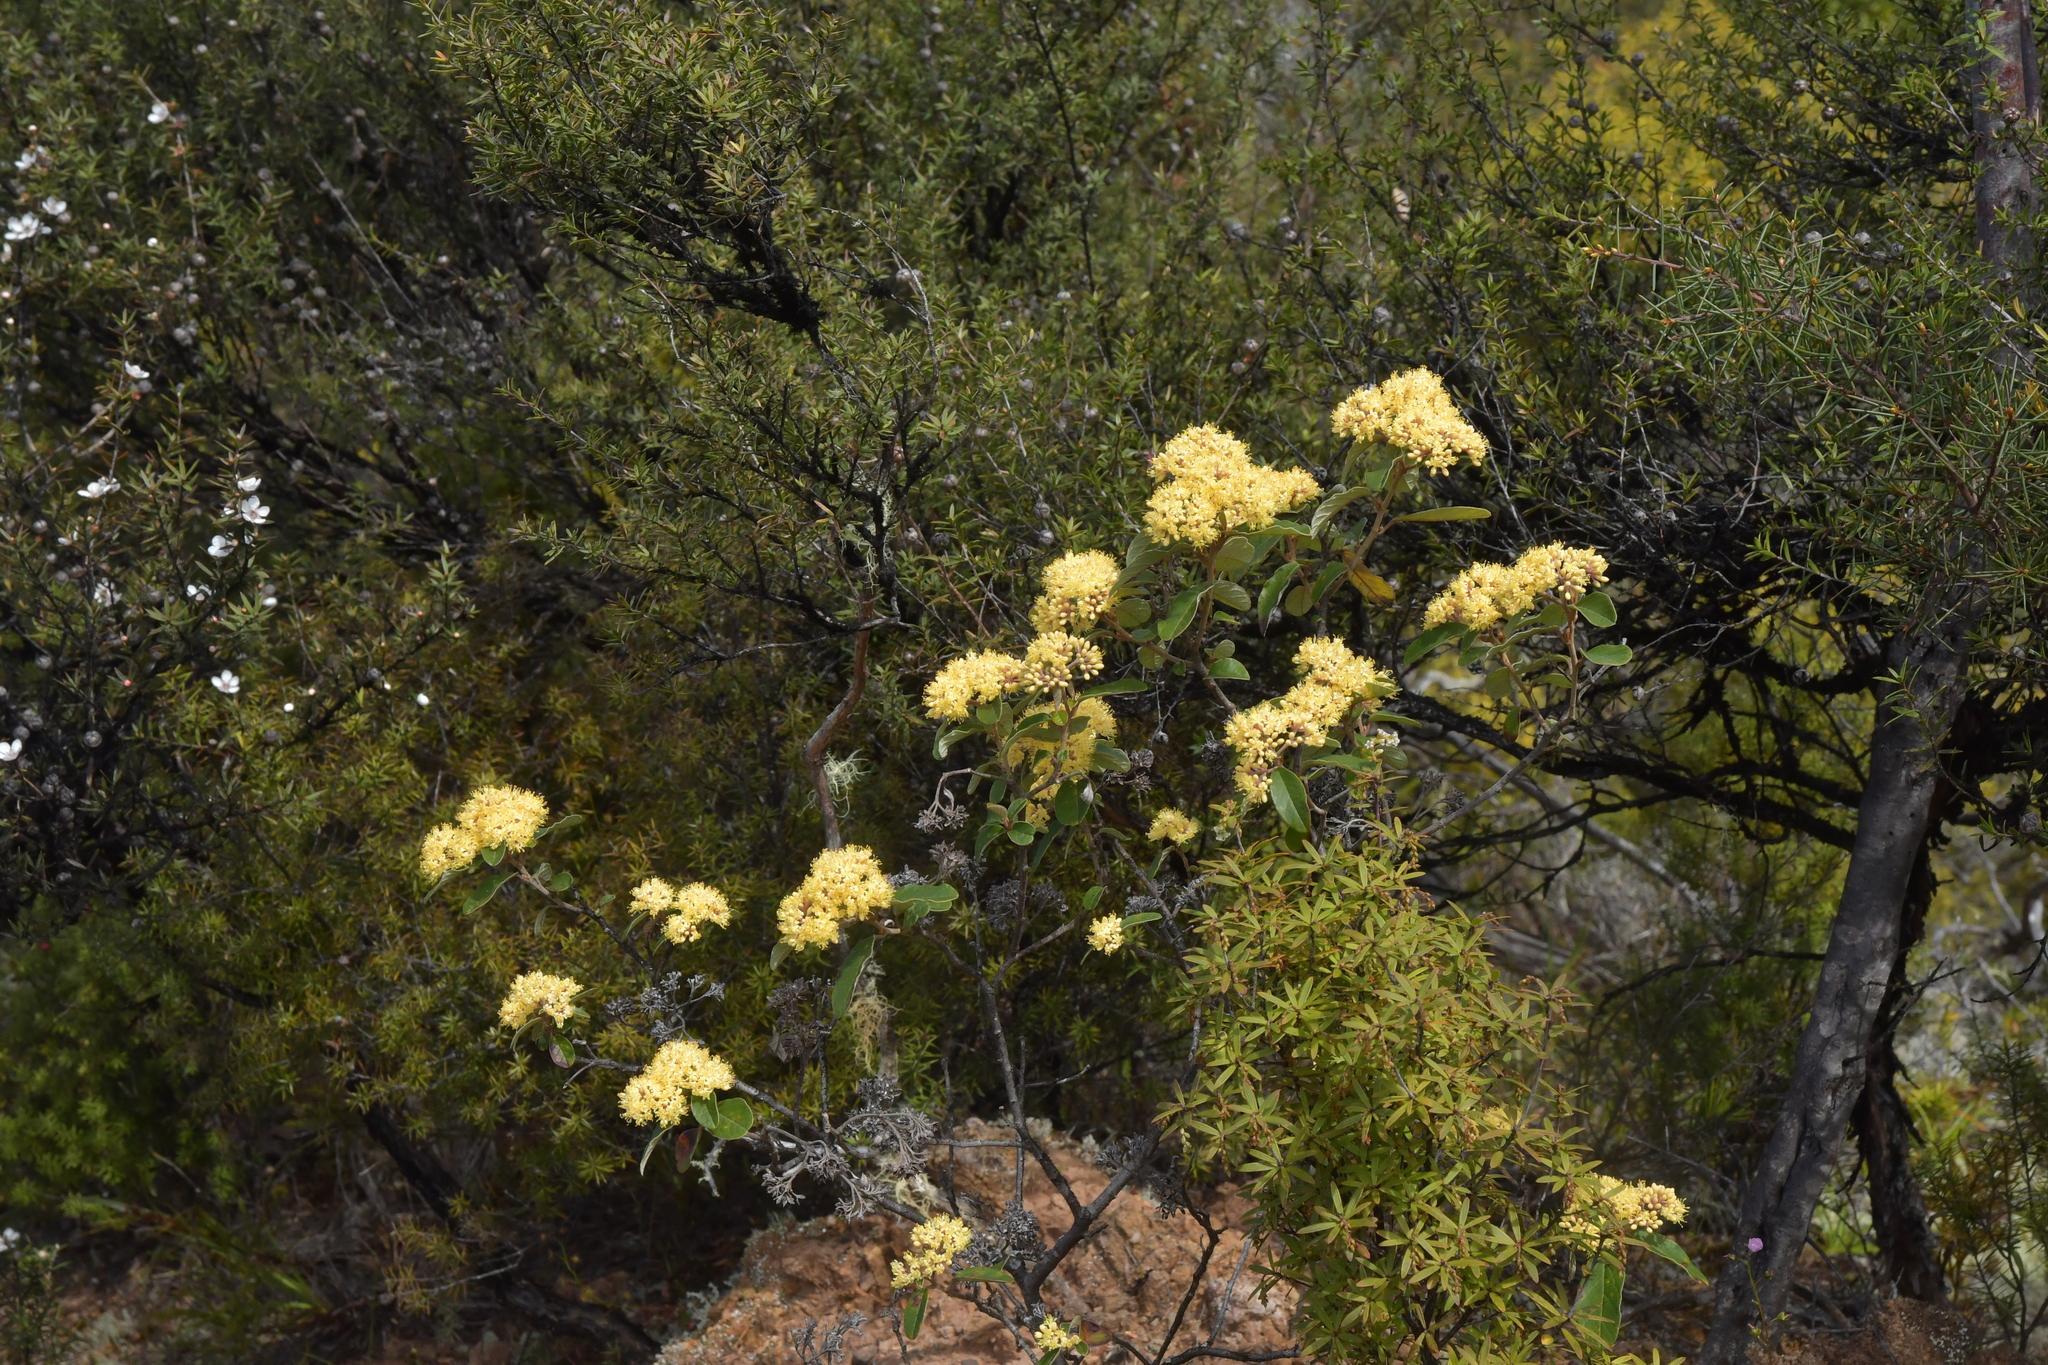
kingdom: Plantae
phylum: Tracheophyta
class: Magnoliopsida
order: Rosales
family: Rhamnaceae
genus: Pomaderris
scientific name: Pomaderris kumeraho
